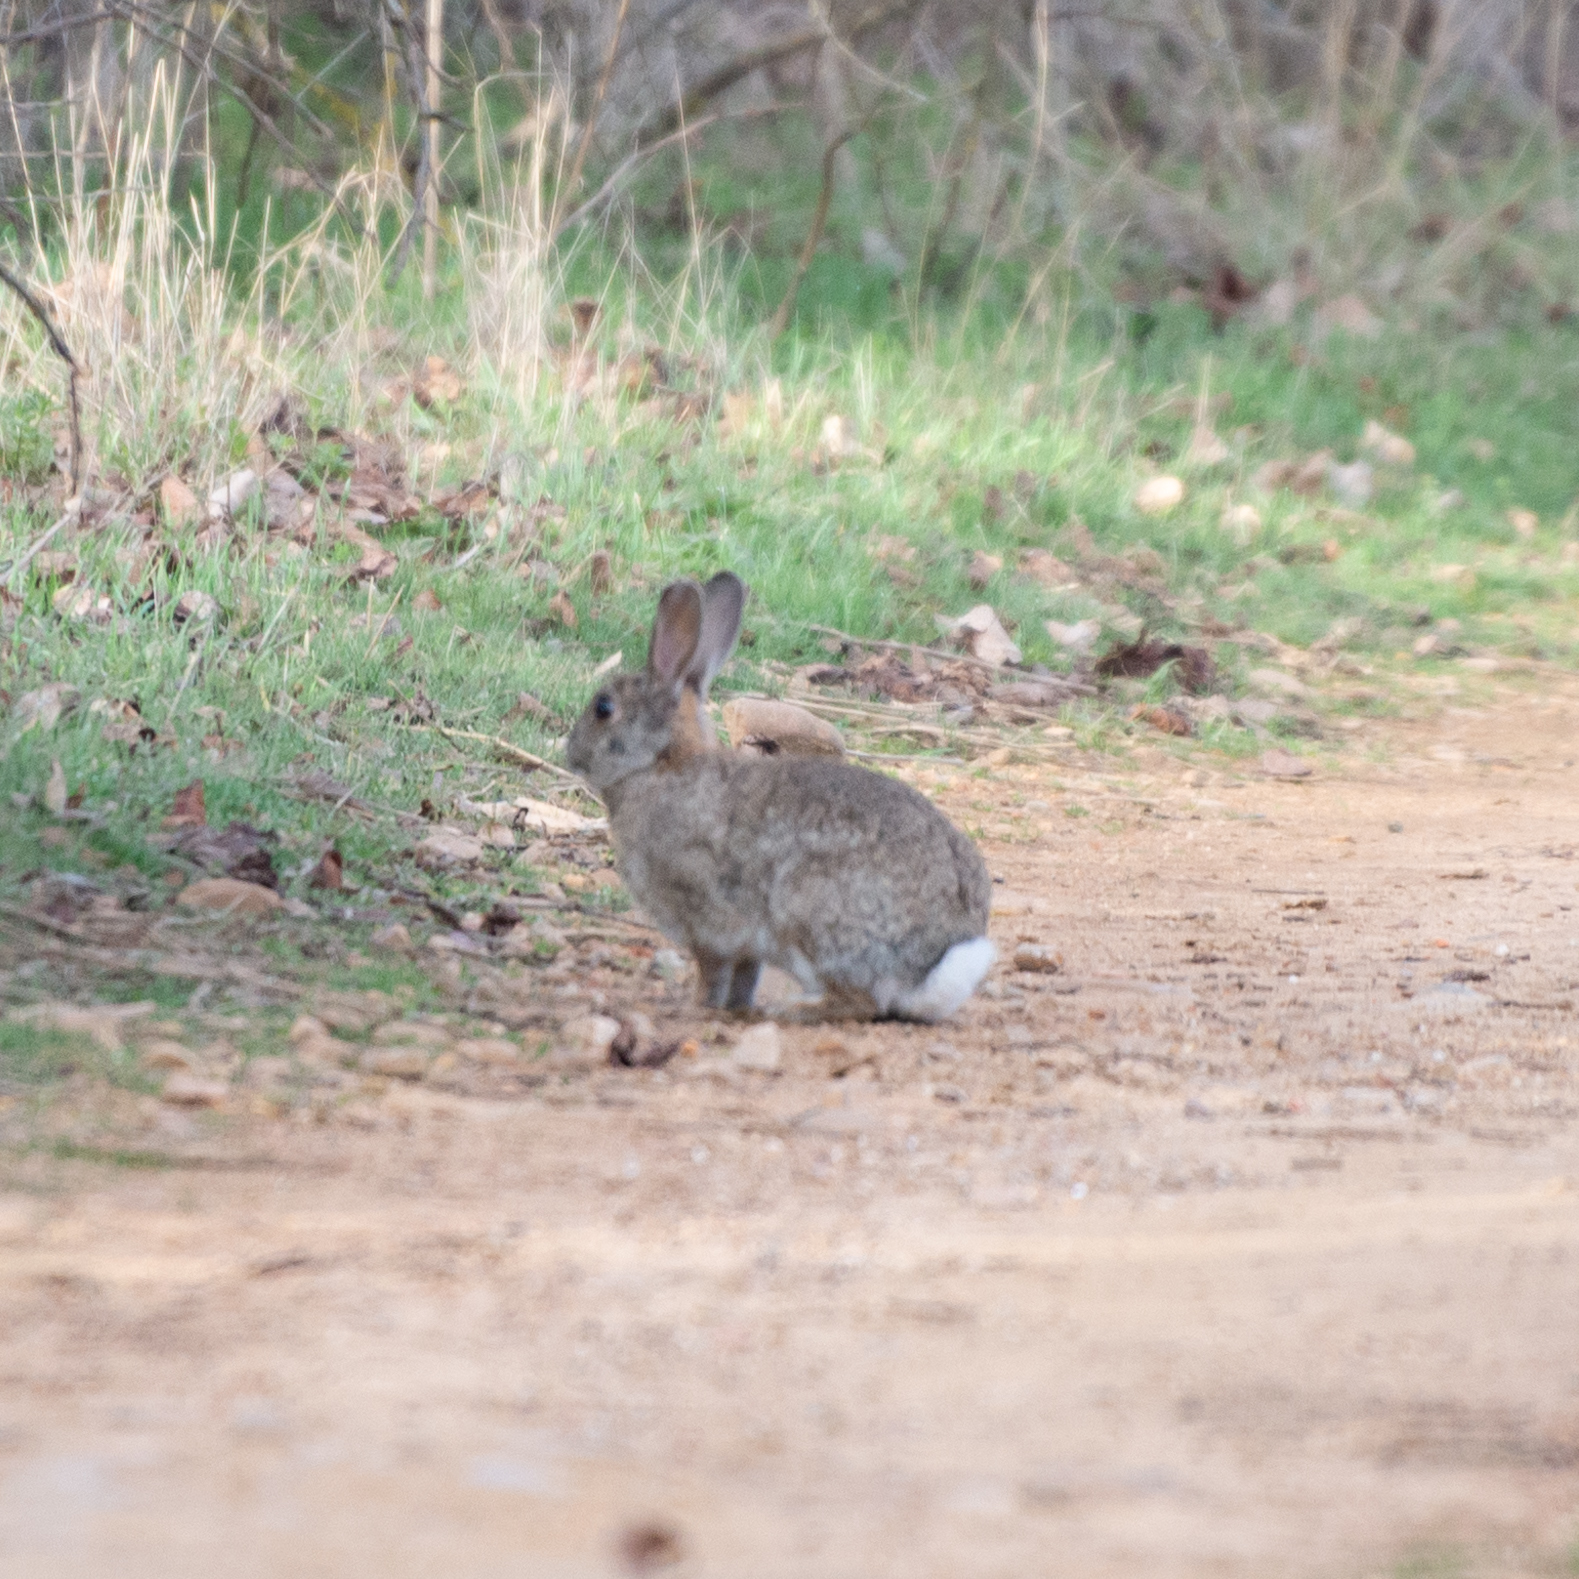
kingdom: Animalia
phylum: Chordata
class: Mammalia
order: Lagomorpha
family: Leporidae
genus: Oryctolagus
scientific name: Oryctolagus cuniculus
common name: European rabbit
